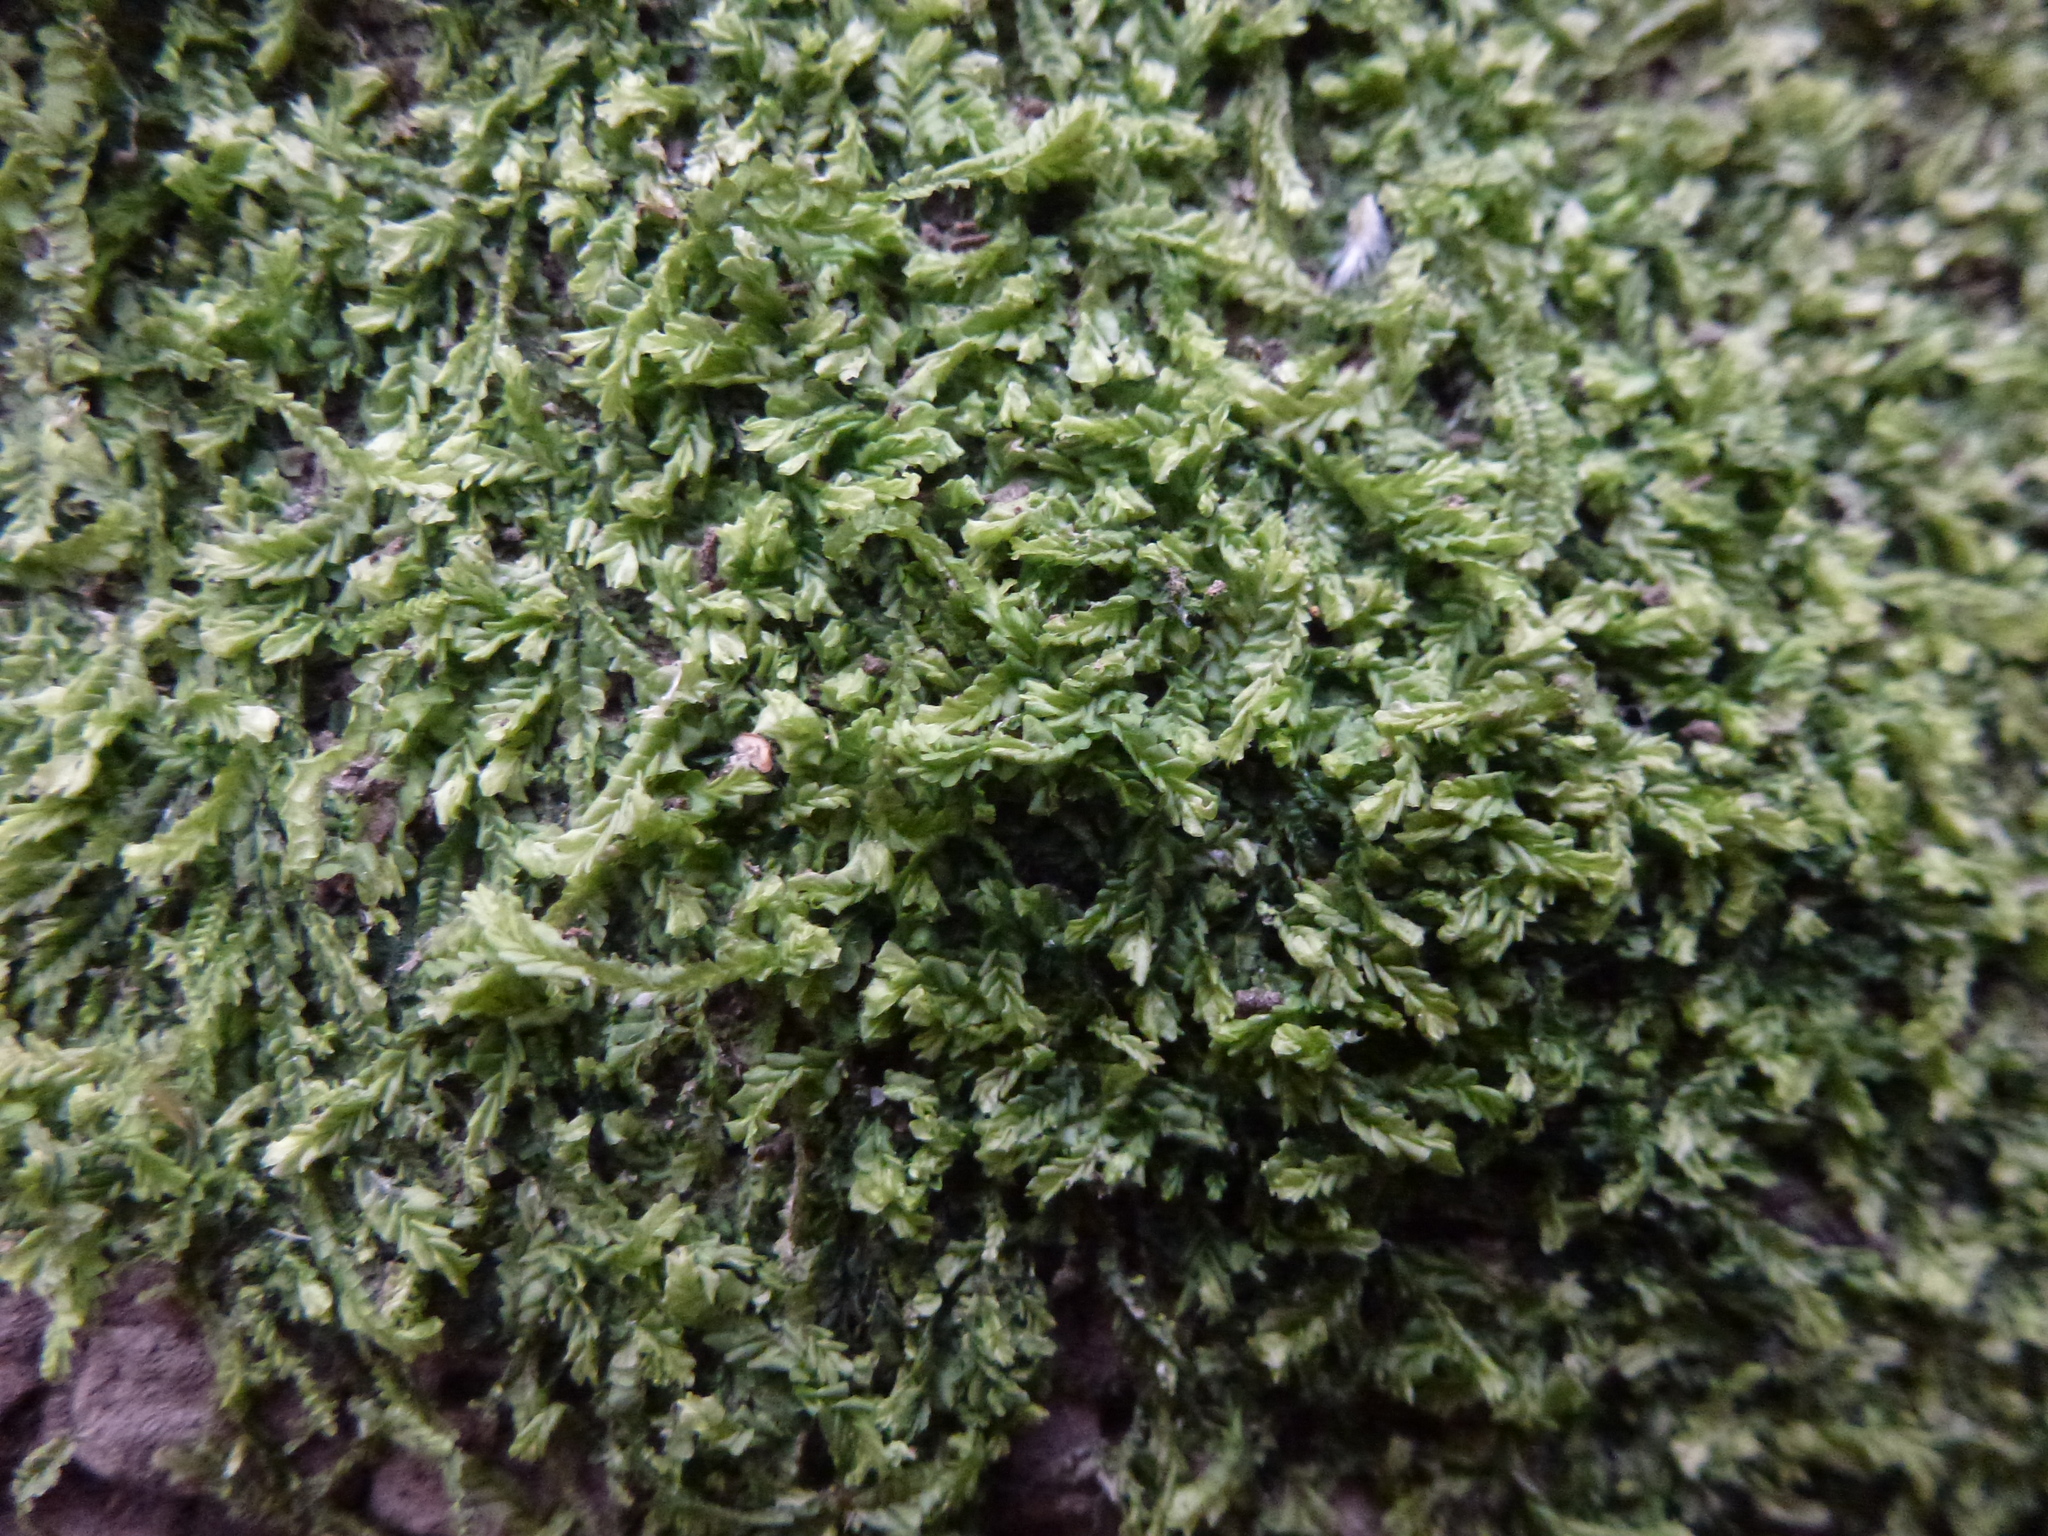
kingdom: Plantae
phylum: Marchantiophyta
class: Jungermanniopsida
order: Jungermanniales
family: Lophocoleaceae
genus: Lophocolea
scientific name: Lophocolea semiteres
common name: Southern crestwort
